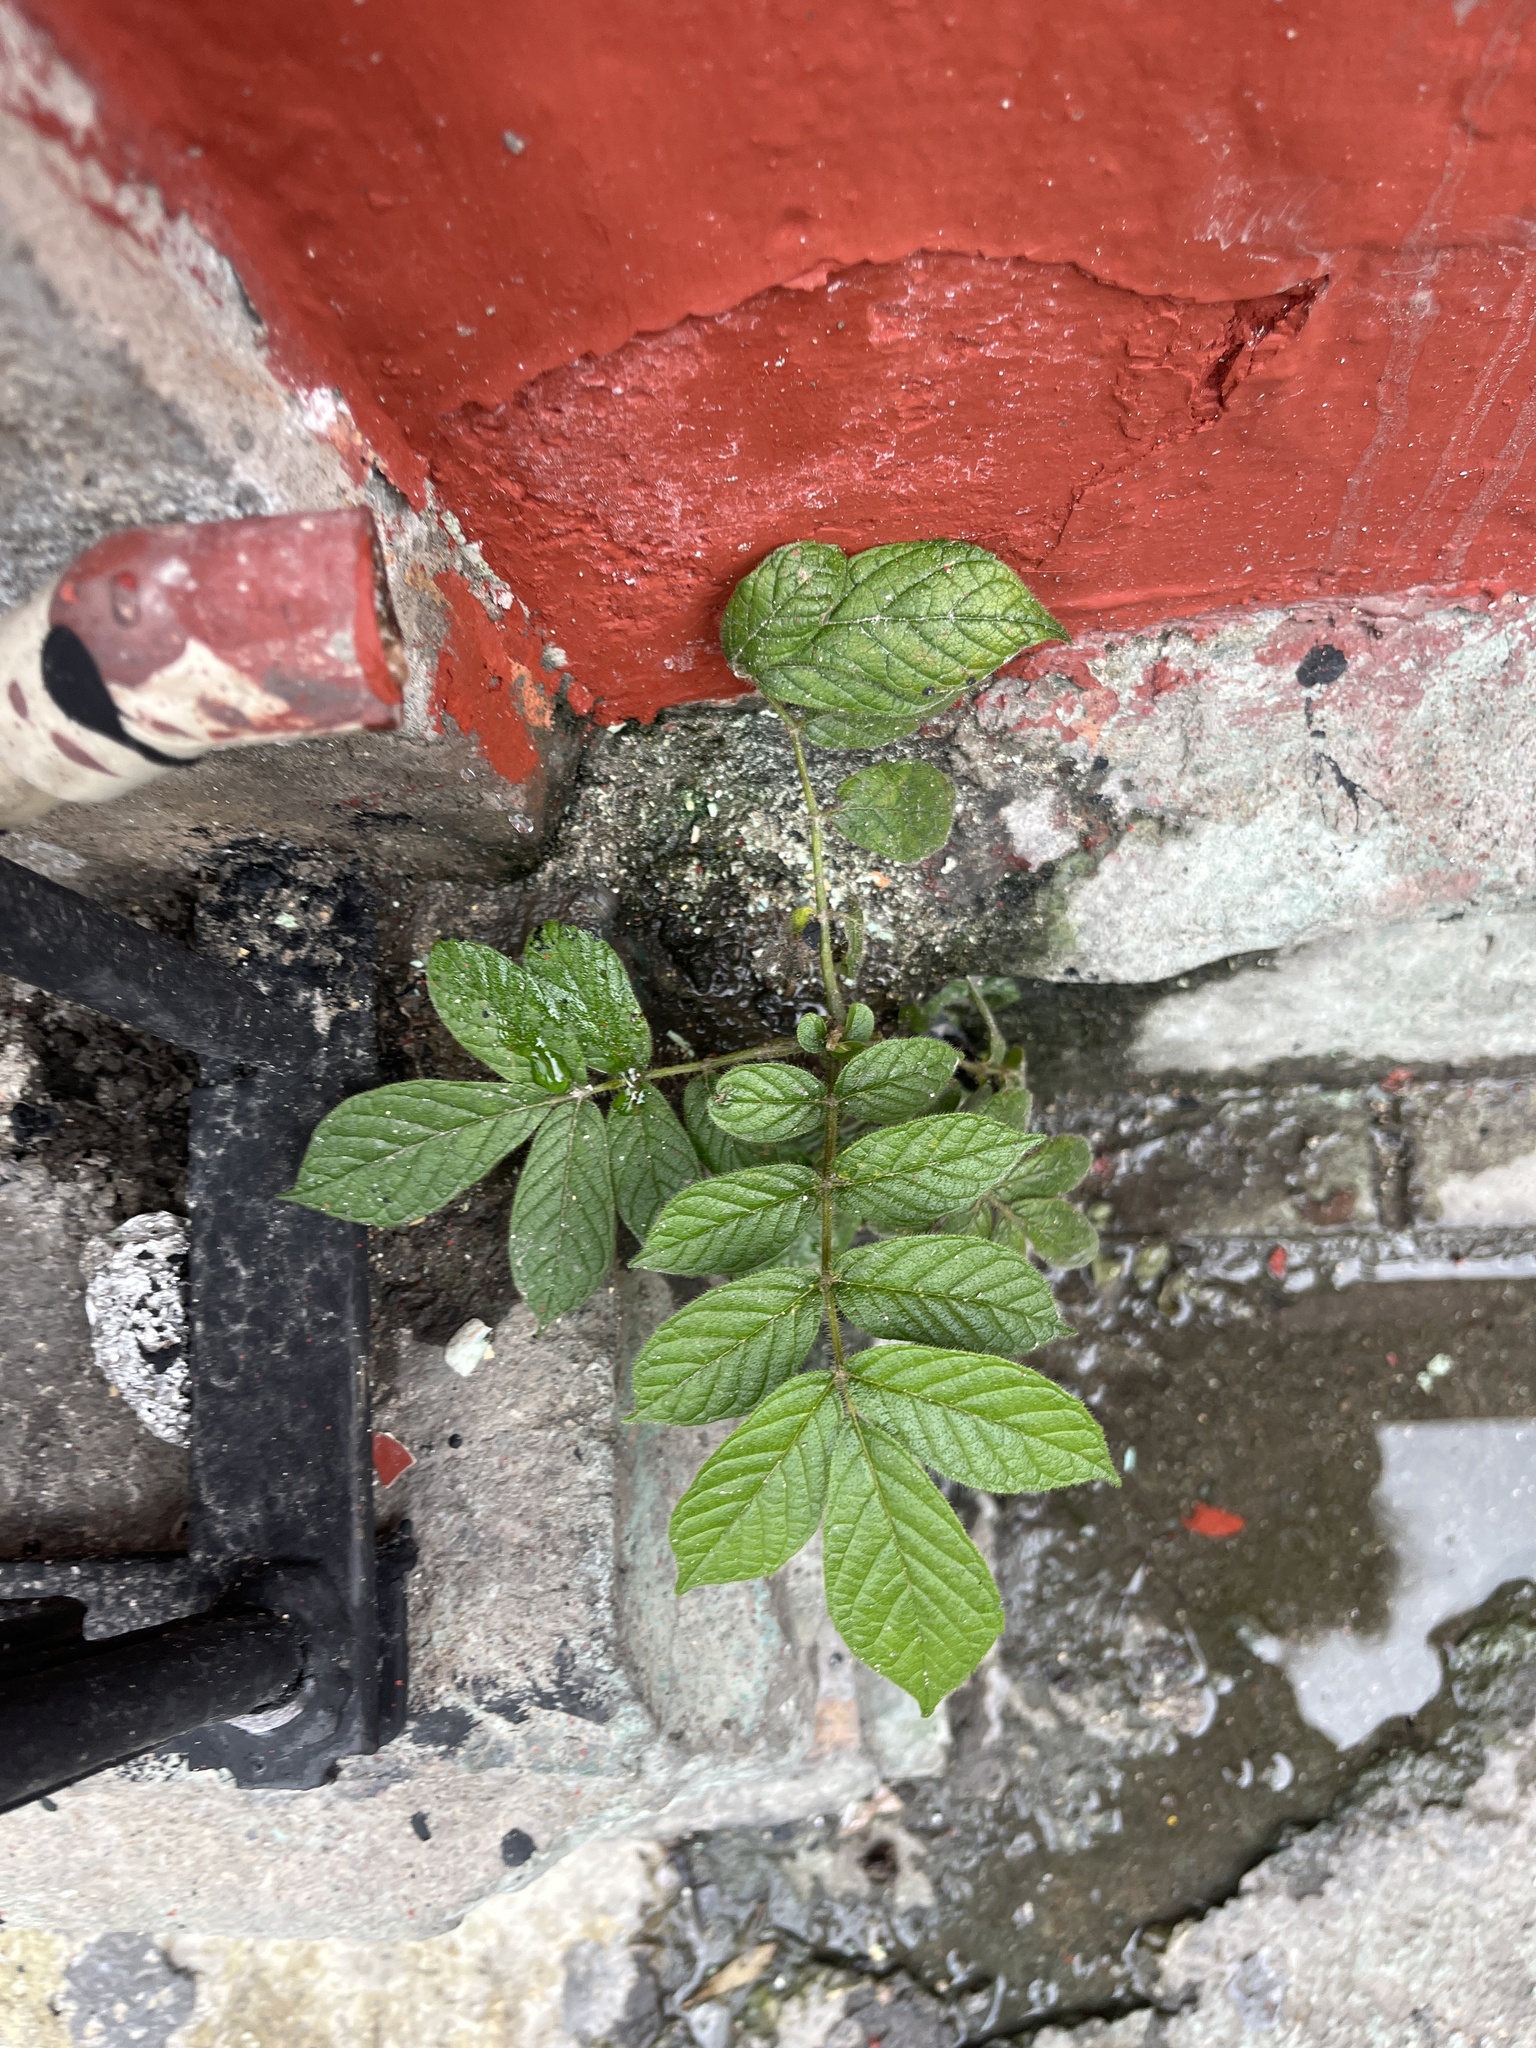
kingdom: Plantae
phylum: Tracheophyta
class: Magnoliopsida
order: Lamiales
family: Bignoniaceae
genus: Spathodea
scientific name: Spathodea campanulata
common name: African tuliptree
